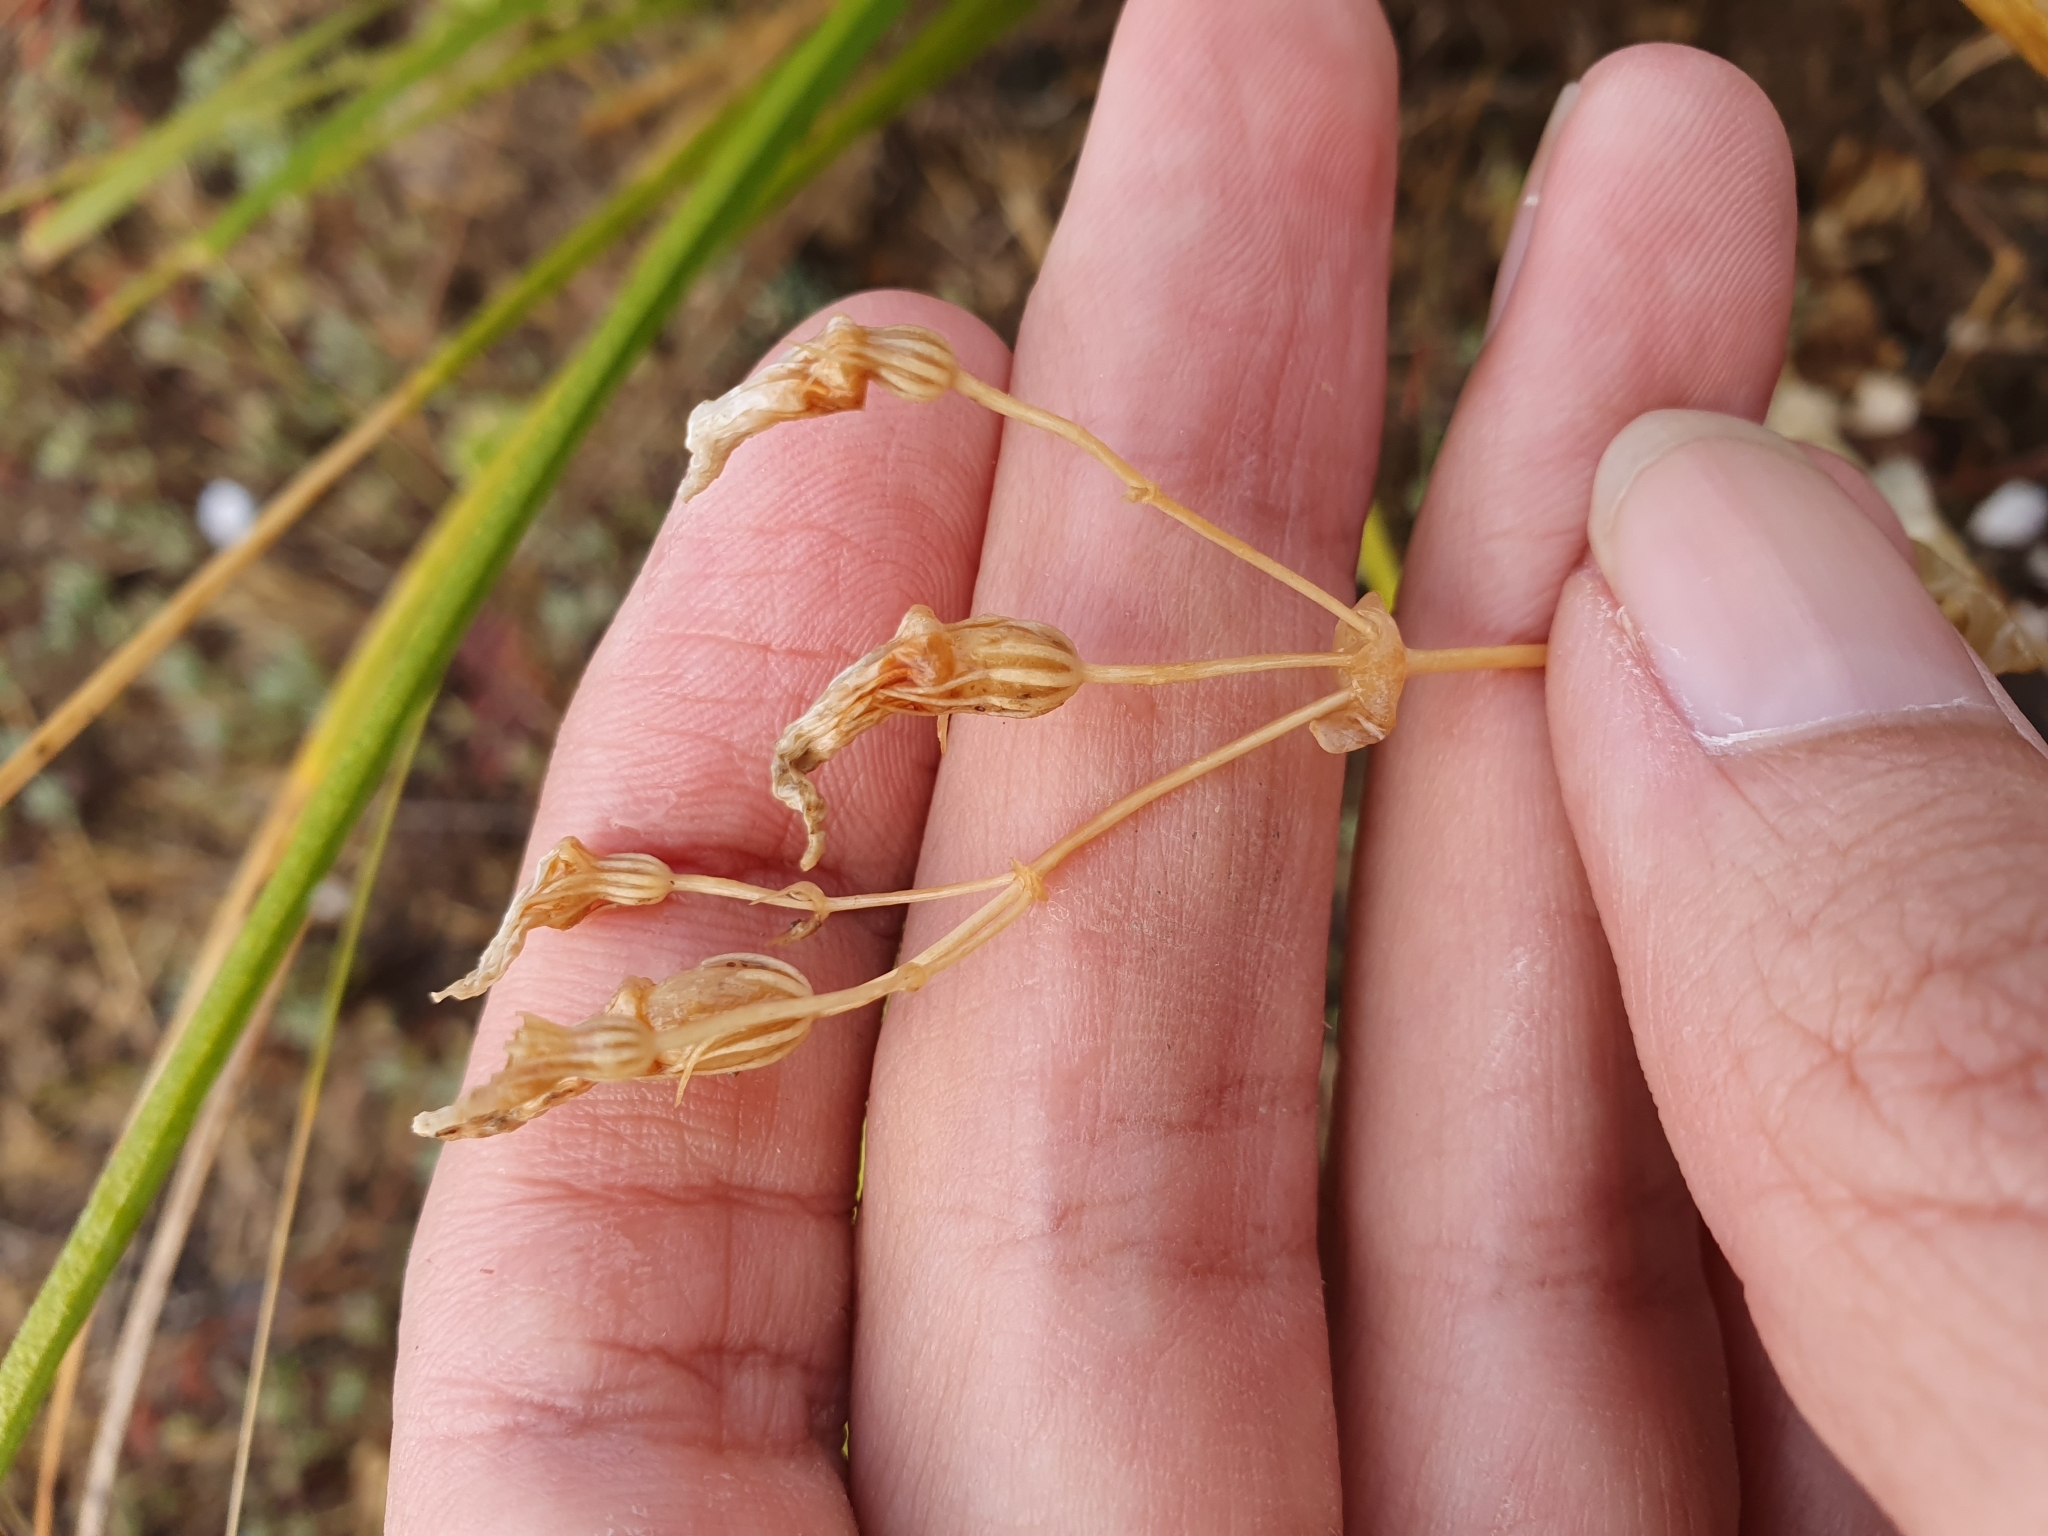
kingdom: Plantae
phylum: Tracheophyta
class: Magnoliopsida
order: Gentianales
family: Gentianaceae
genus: Blackstonia
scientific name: Blackstonia grandiflora
